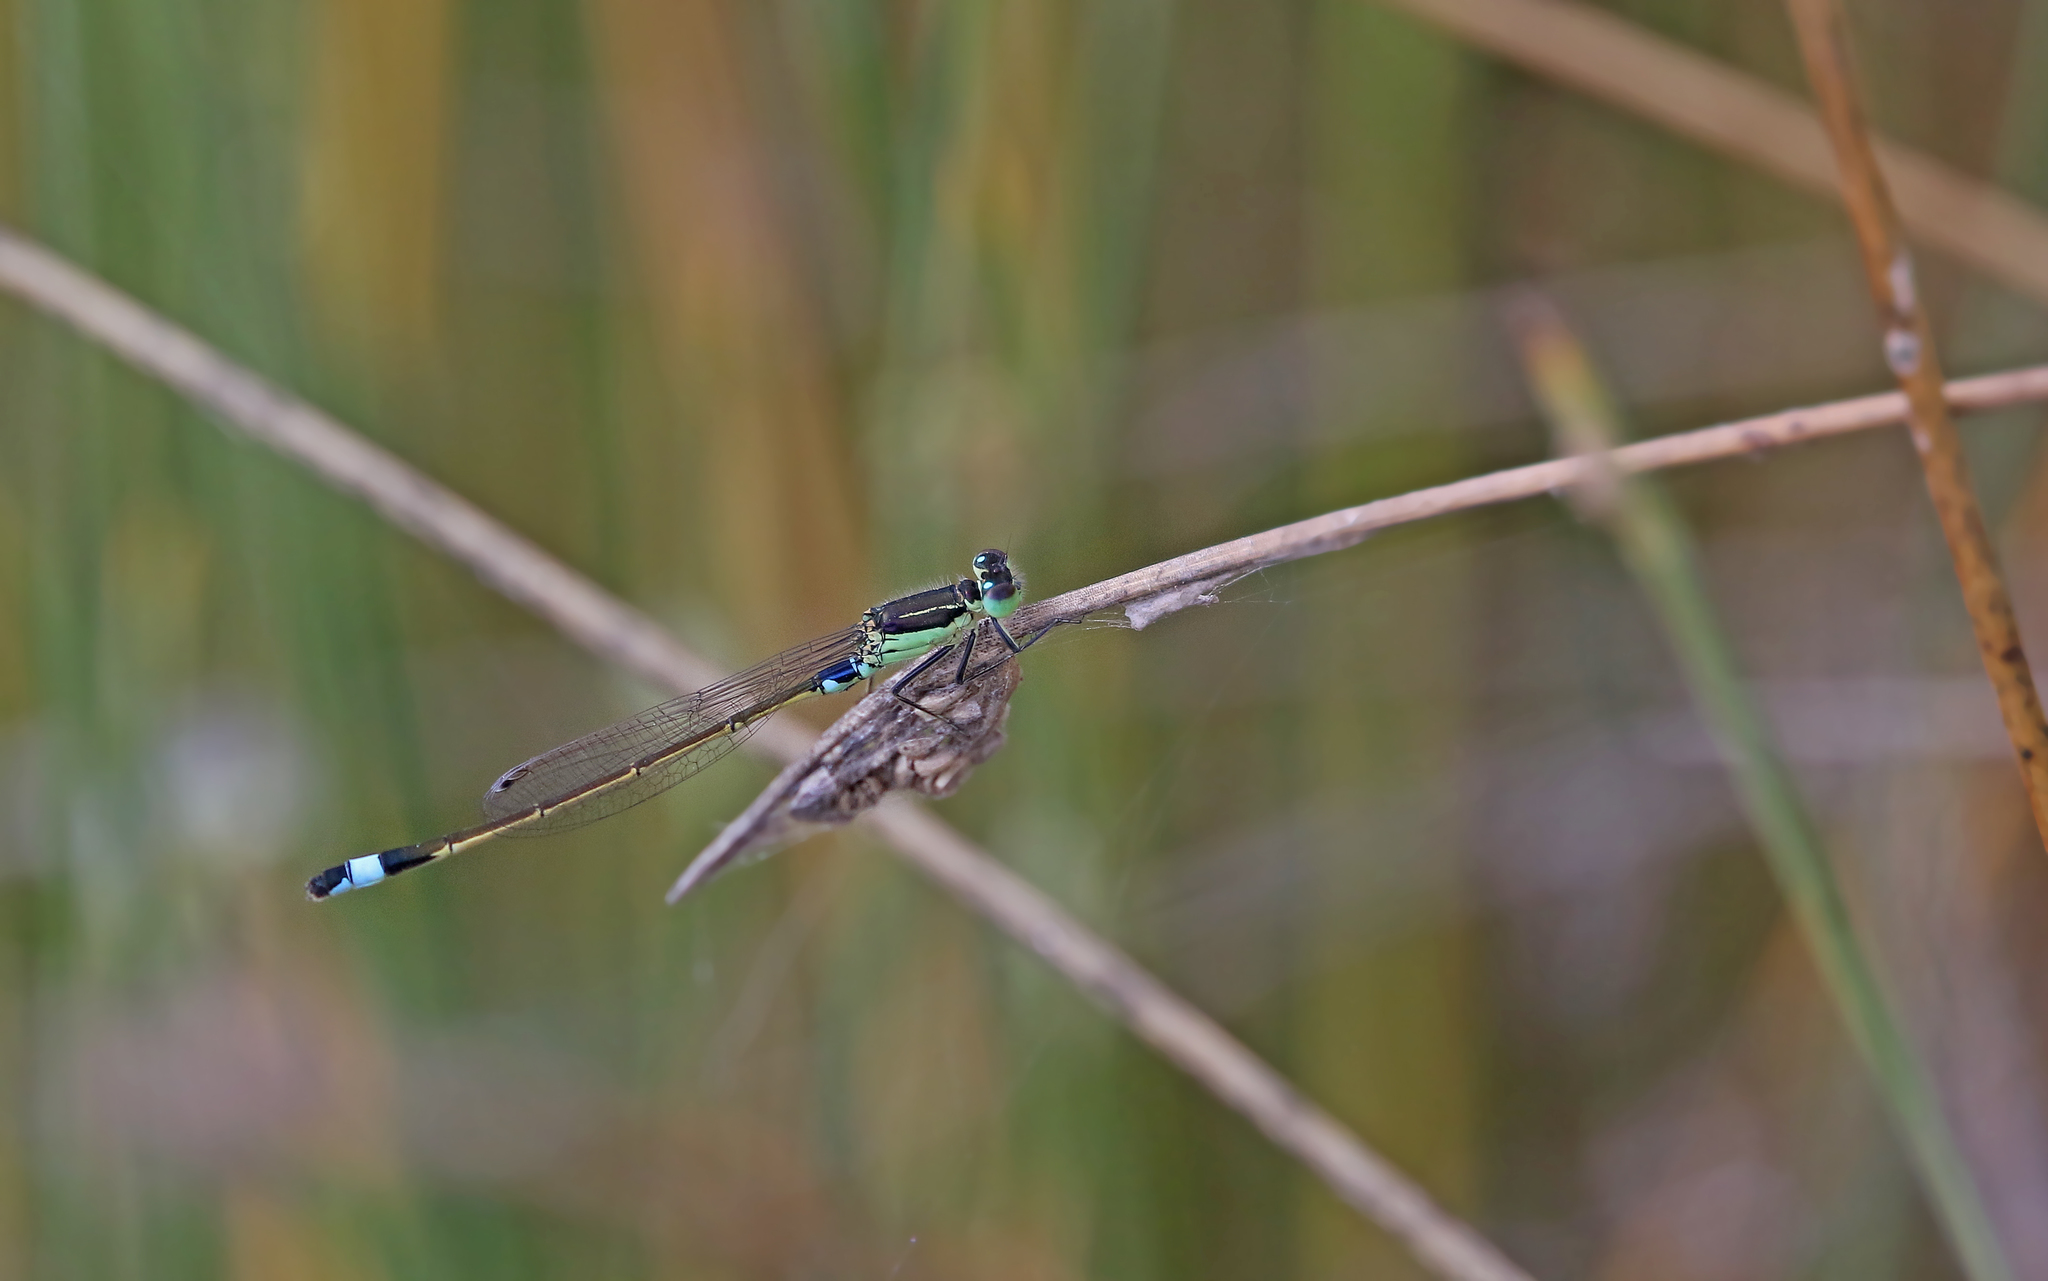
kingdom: Animalia
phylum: Arthropoda
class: Insecta
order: Odonata
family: Coenagrionidae
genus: Ischnura
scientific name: Ischnura senegalensis
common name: Tropical bluetail
